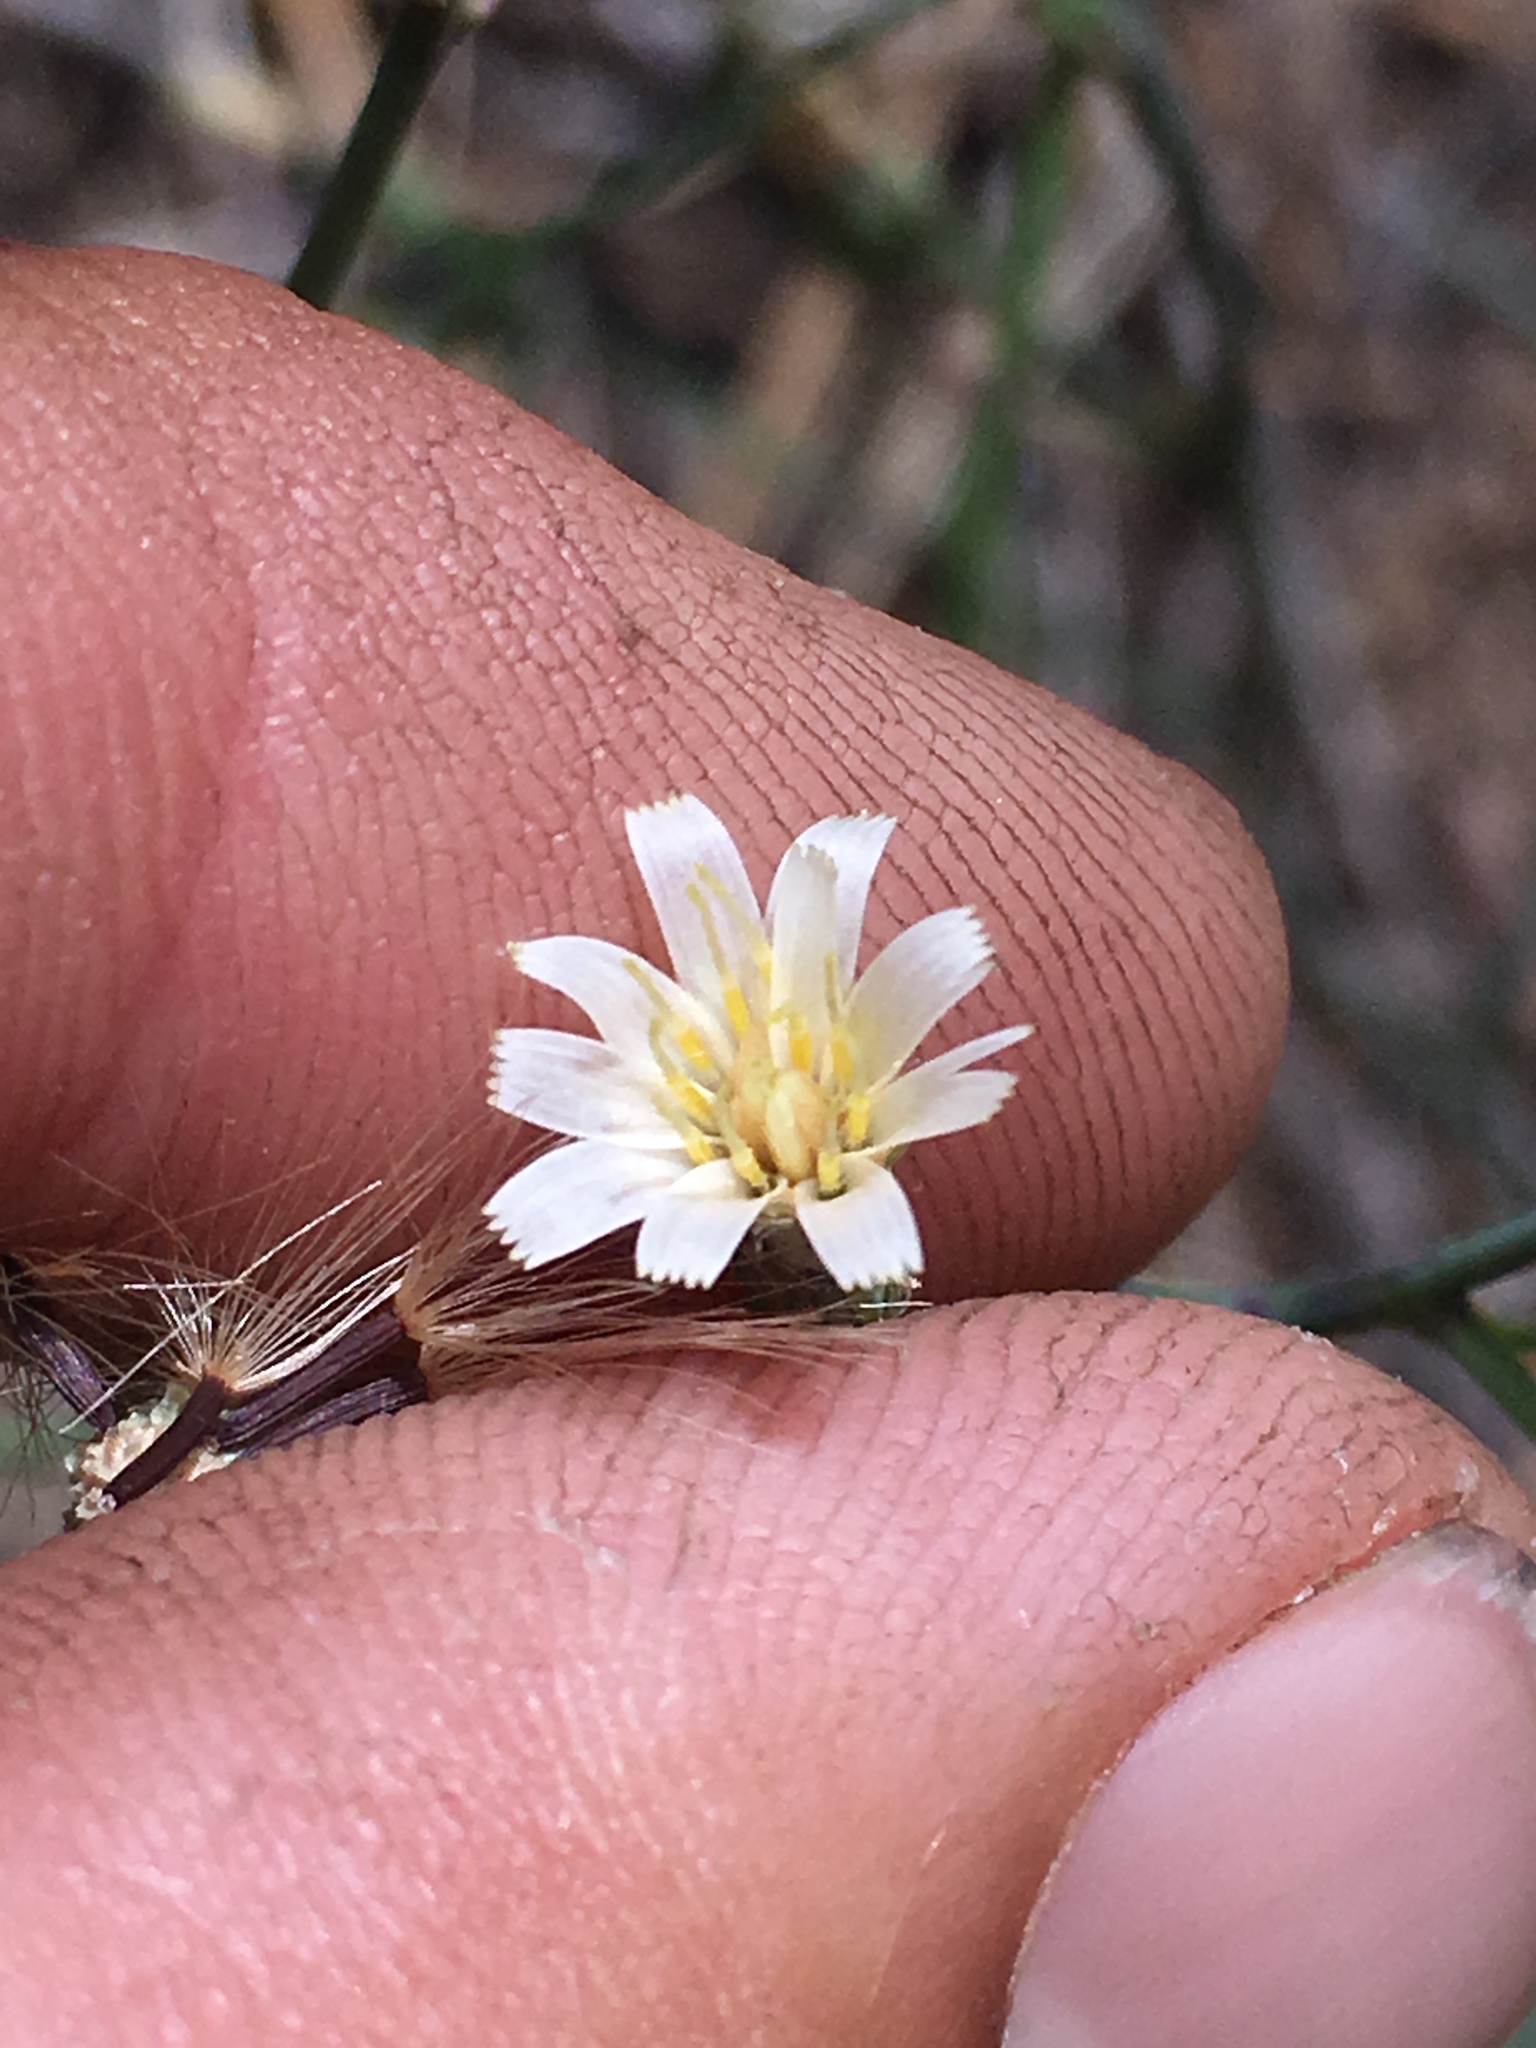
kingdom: Plantae
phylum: Tracheophyta
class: Magnoliopsida
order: Asterales
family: Asteraceae
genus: Hieracium
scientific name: Hieracium albiflorum
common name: White hawkweed
